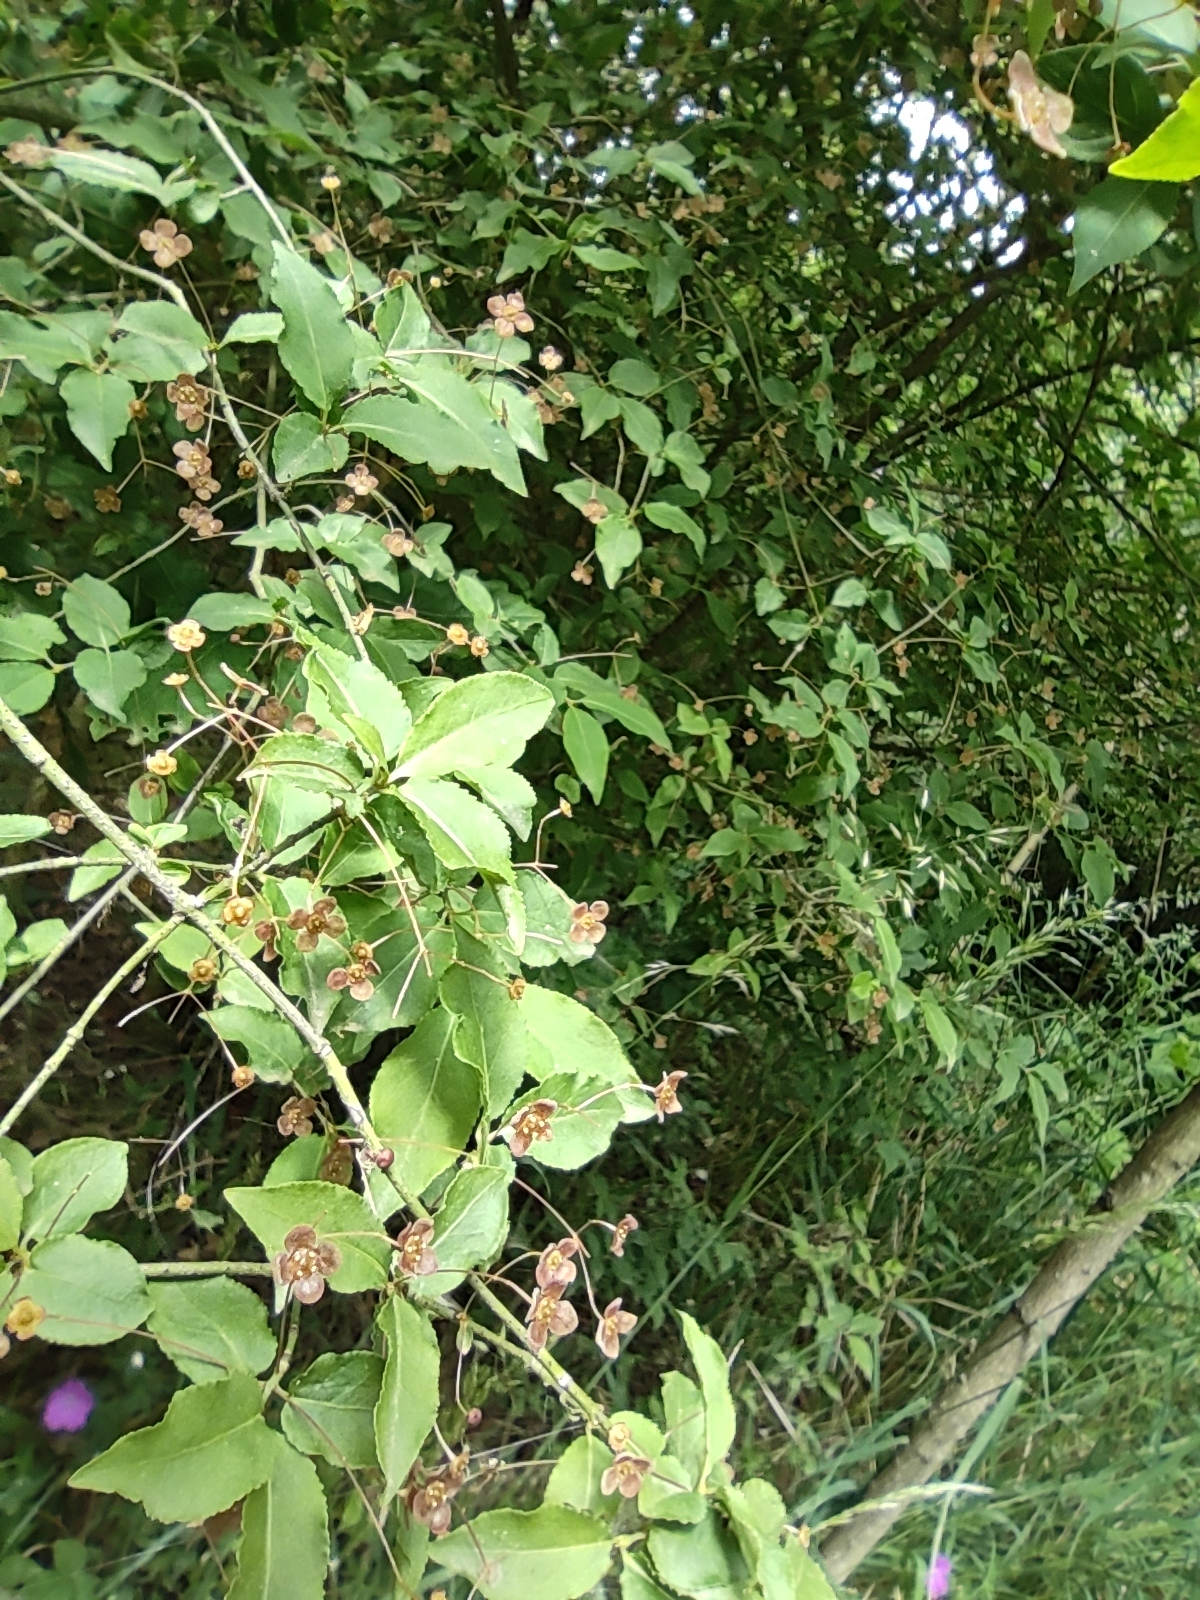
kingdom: Plantae
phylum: Tracheophyta
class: Magnoliopsida
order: Celastrales
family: Celastraceae
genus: Euonymus
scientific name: Euonymus verrucosus
